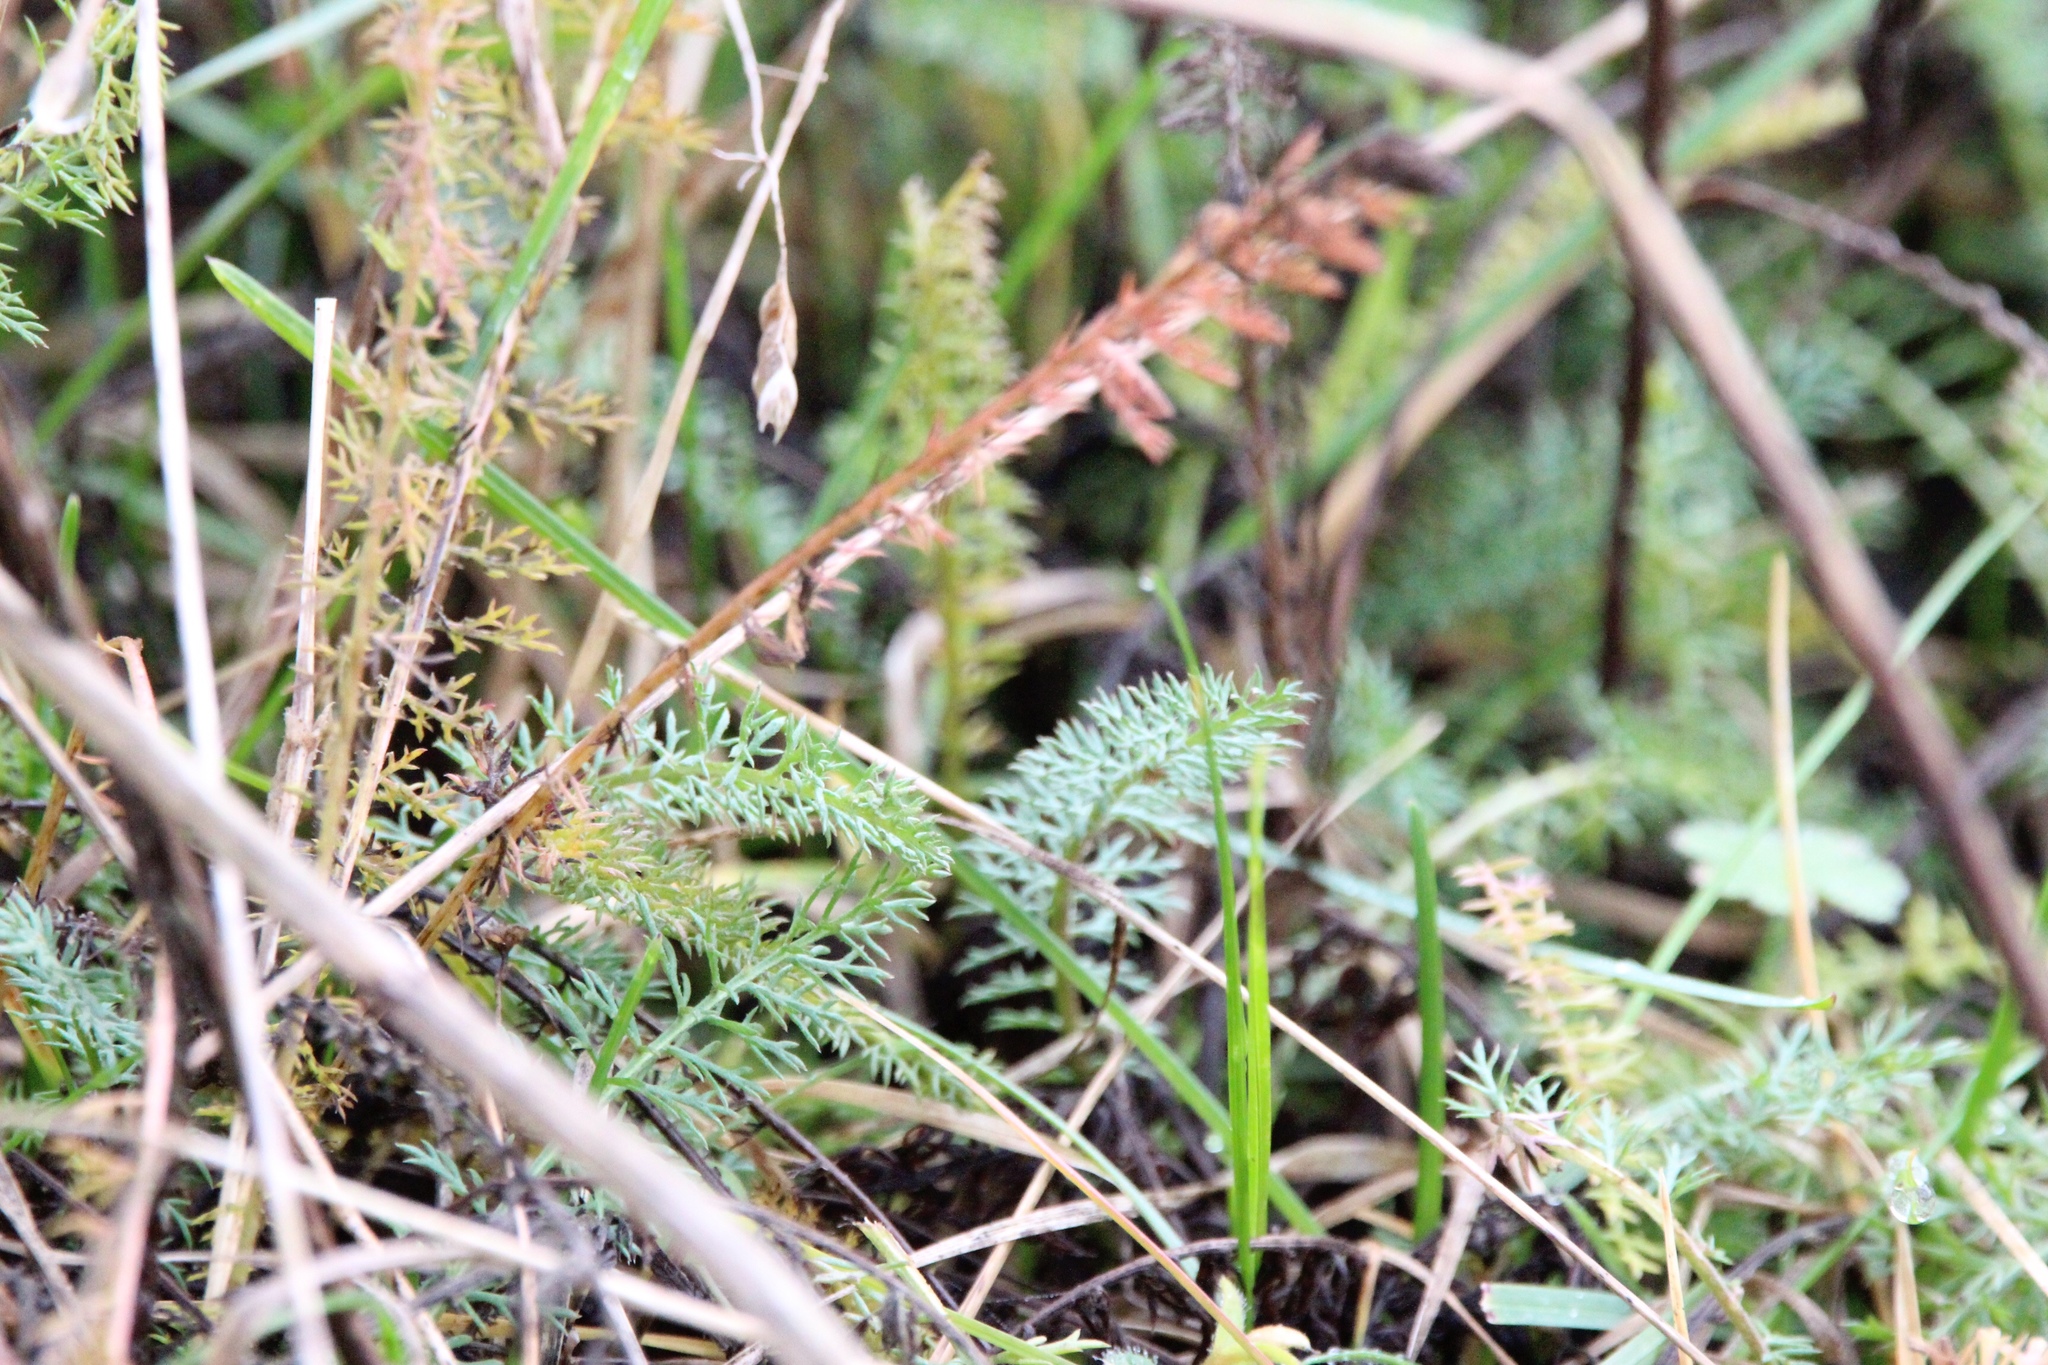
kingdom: Plantae
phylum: Tracheophyta
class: Magnoliopsida
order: Asterales
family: Asteraceae
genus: Achillea
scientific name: Achillea millefolium
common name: Yarrow
